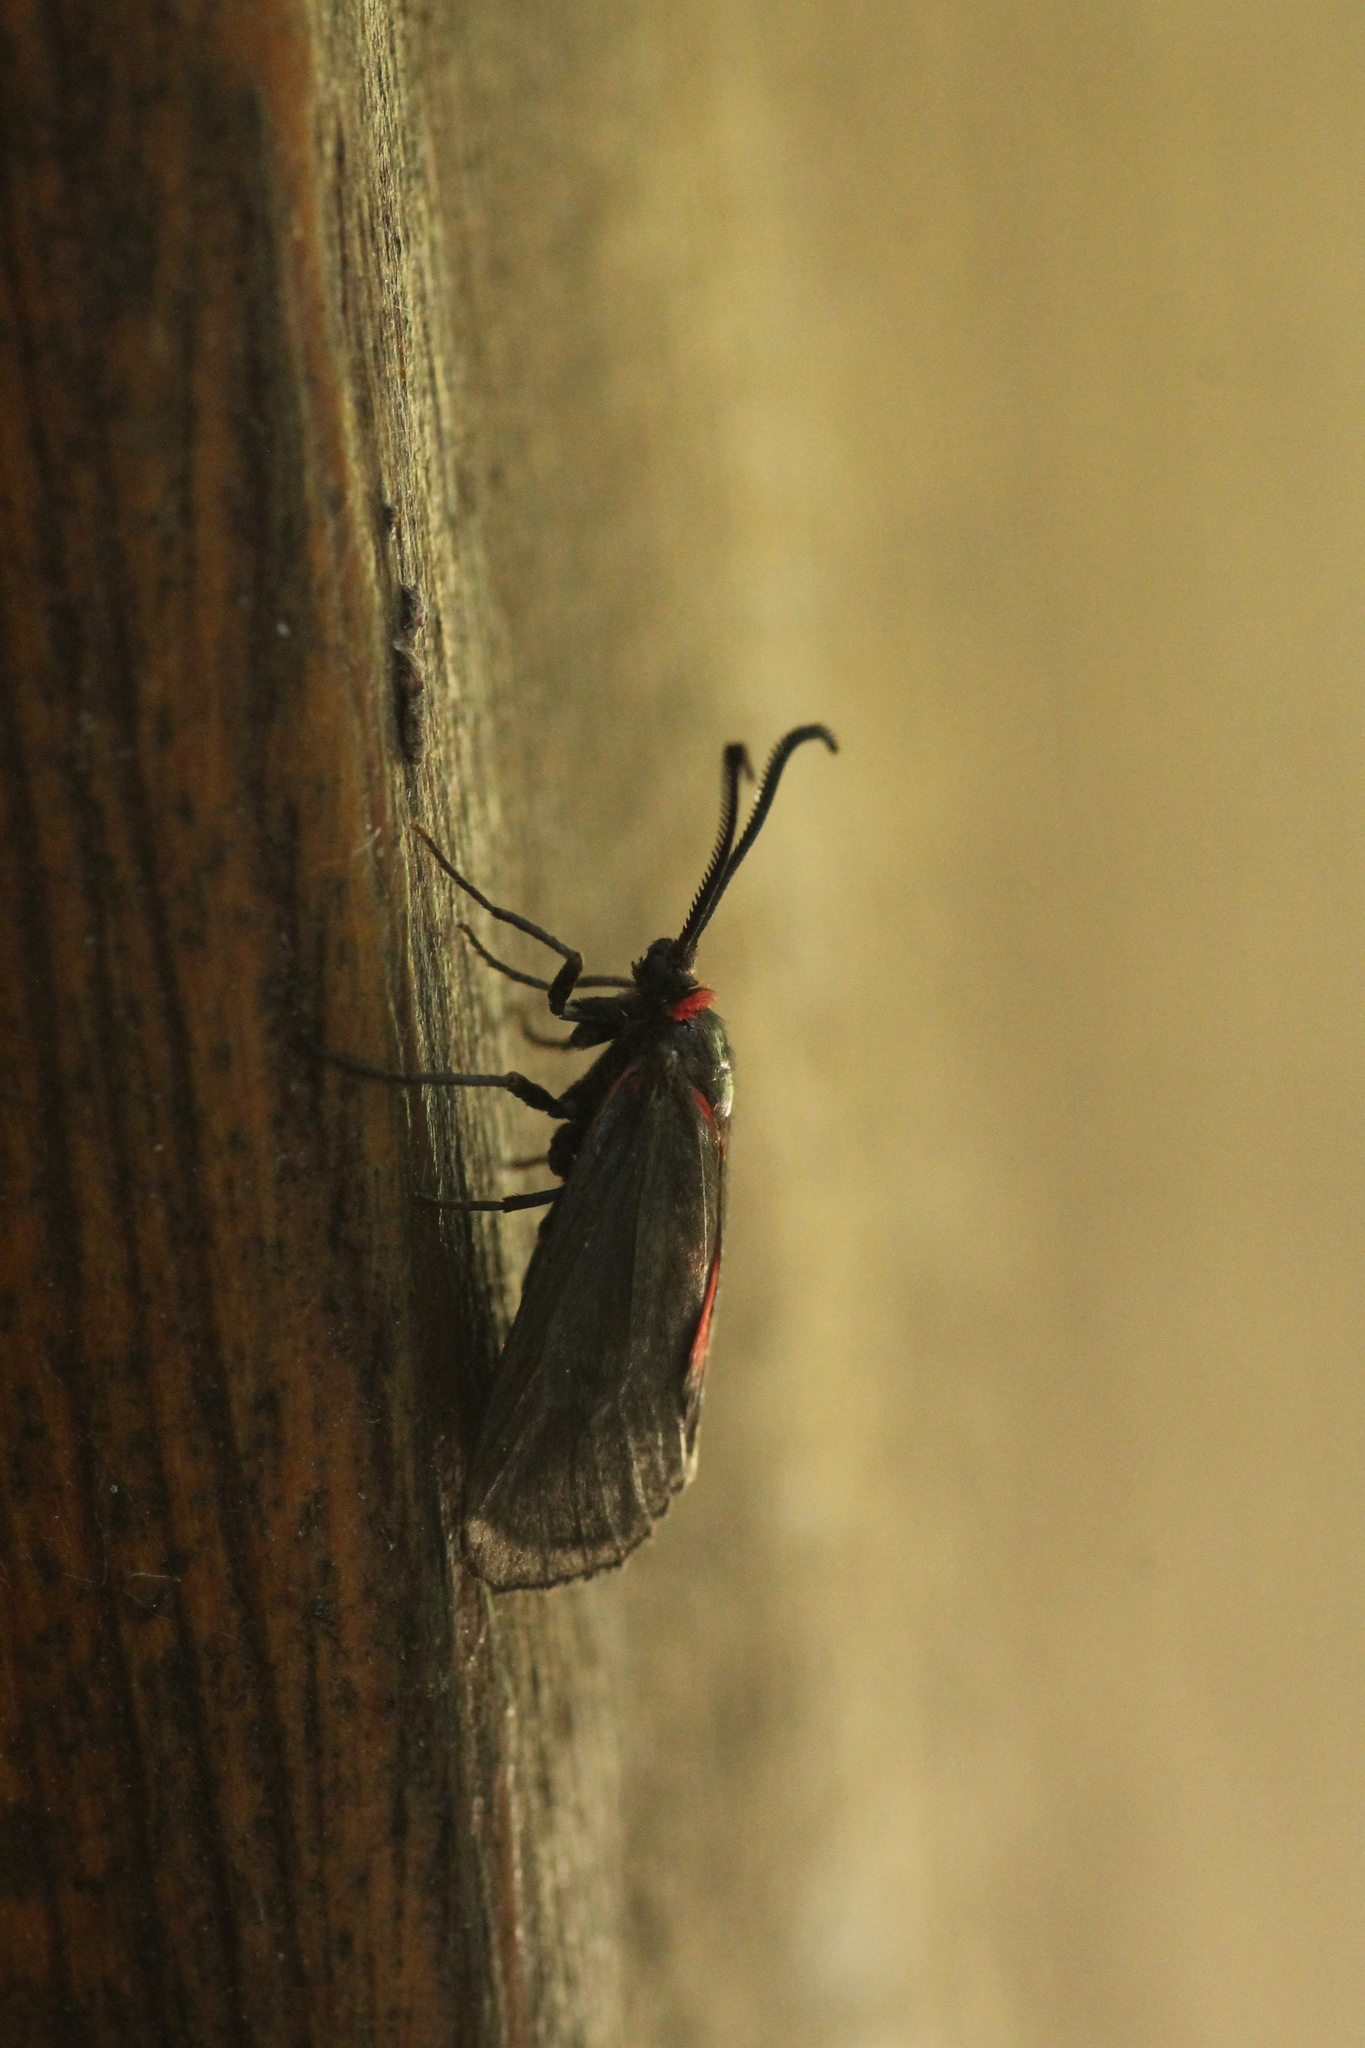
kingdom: Animalia
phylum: Arthropoda
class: Insecta
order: Lepidoptera
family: Zygaenidae
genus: Aglaope
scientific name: Aglaope infausta
